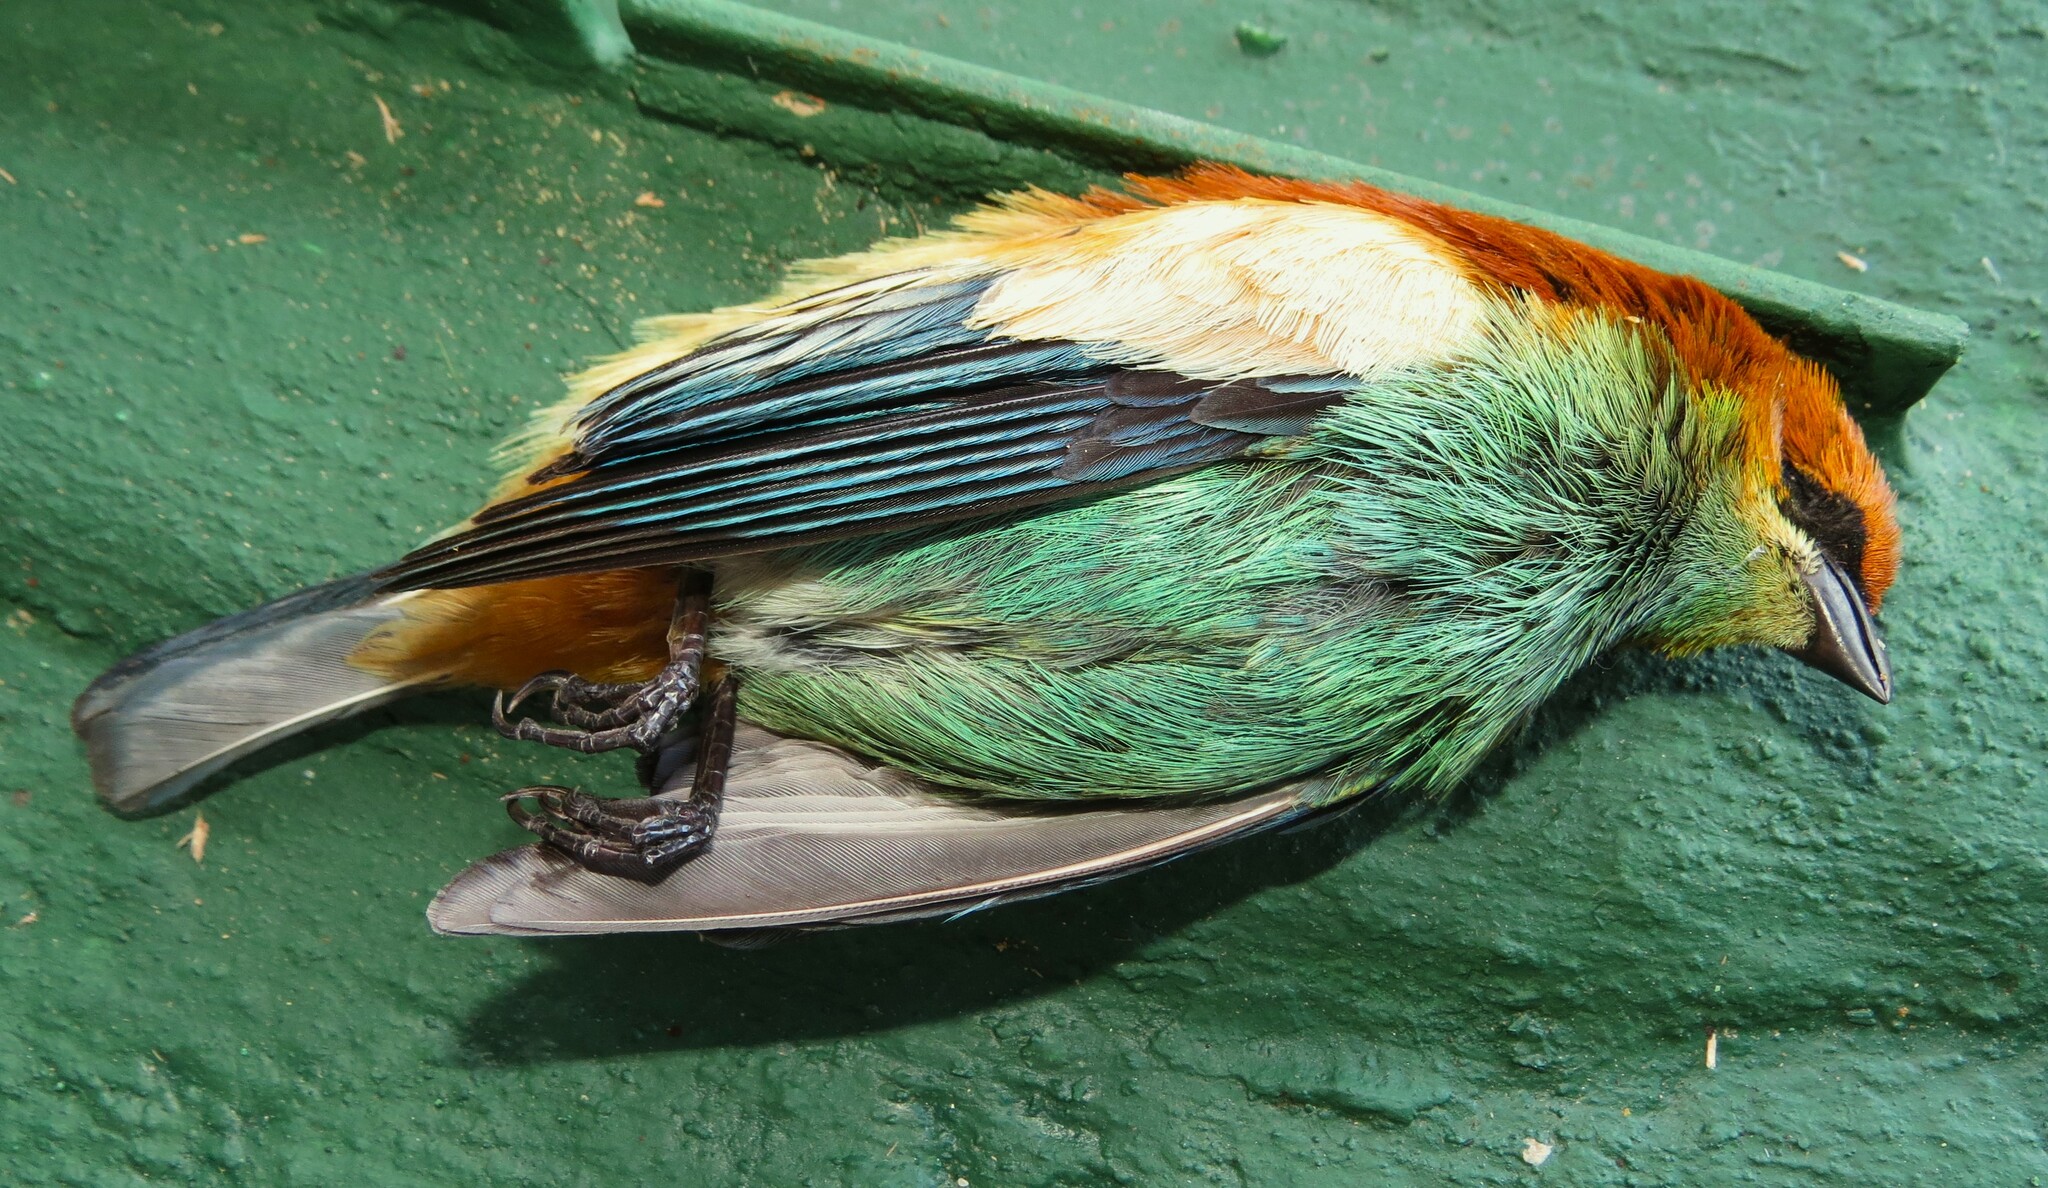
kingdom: Animalia
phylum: Chordata
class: Aves
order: Passeriformes
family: Thraupidae
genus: Stilpnia
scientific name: Stilpnia preciosa
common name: Chestnut-backed tanager
